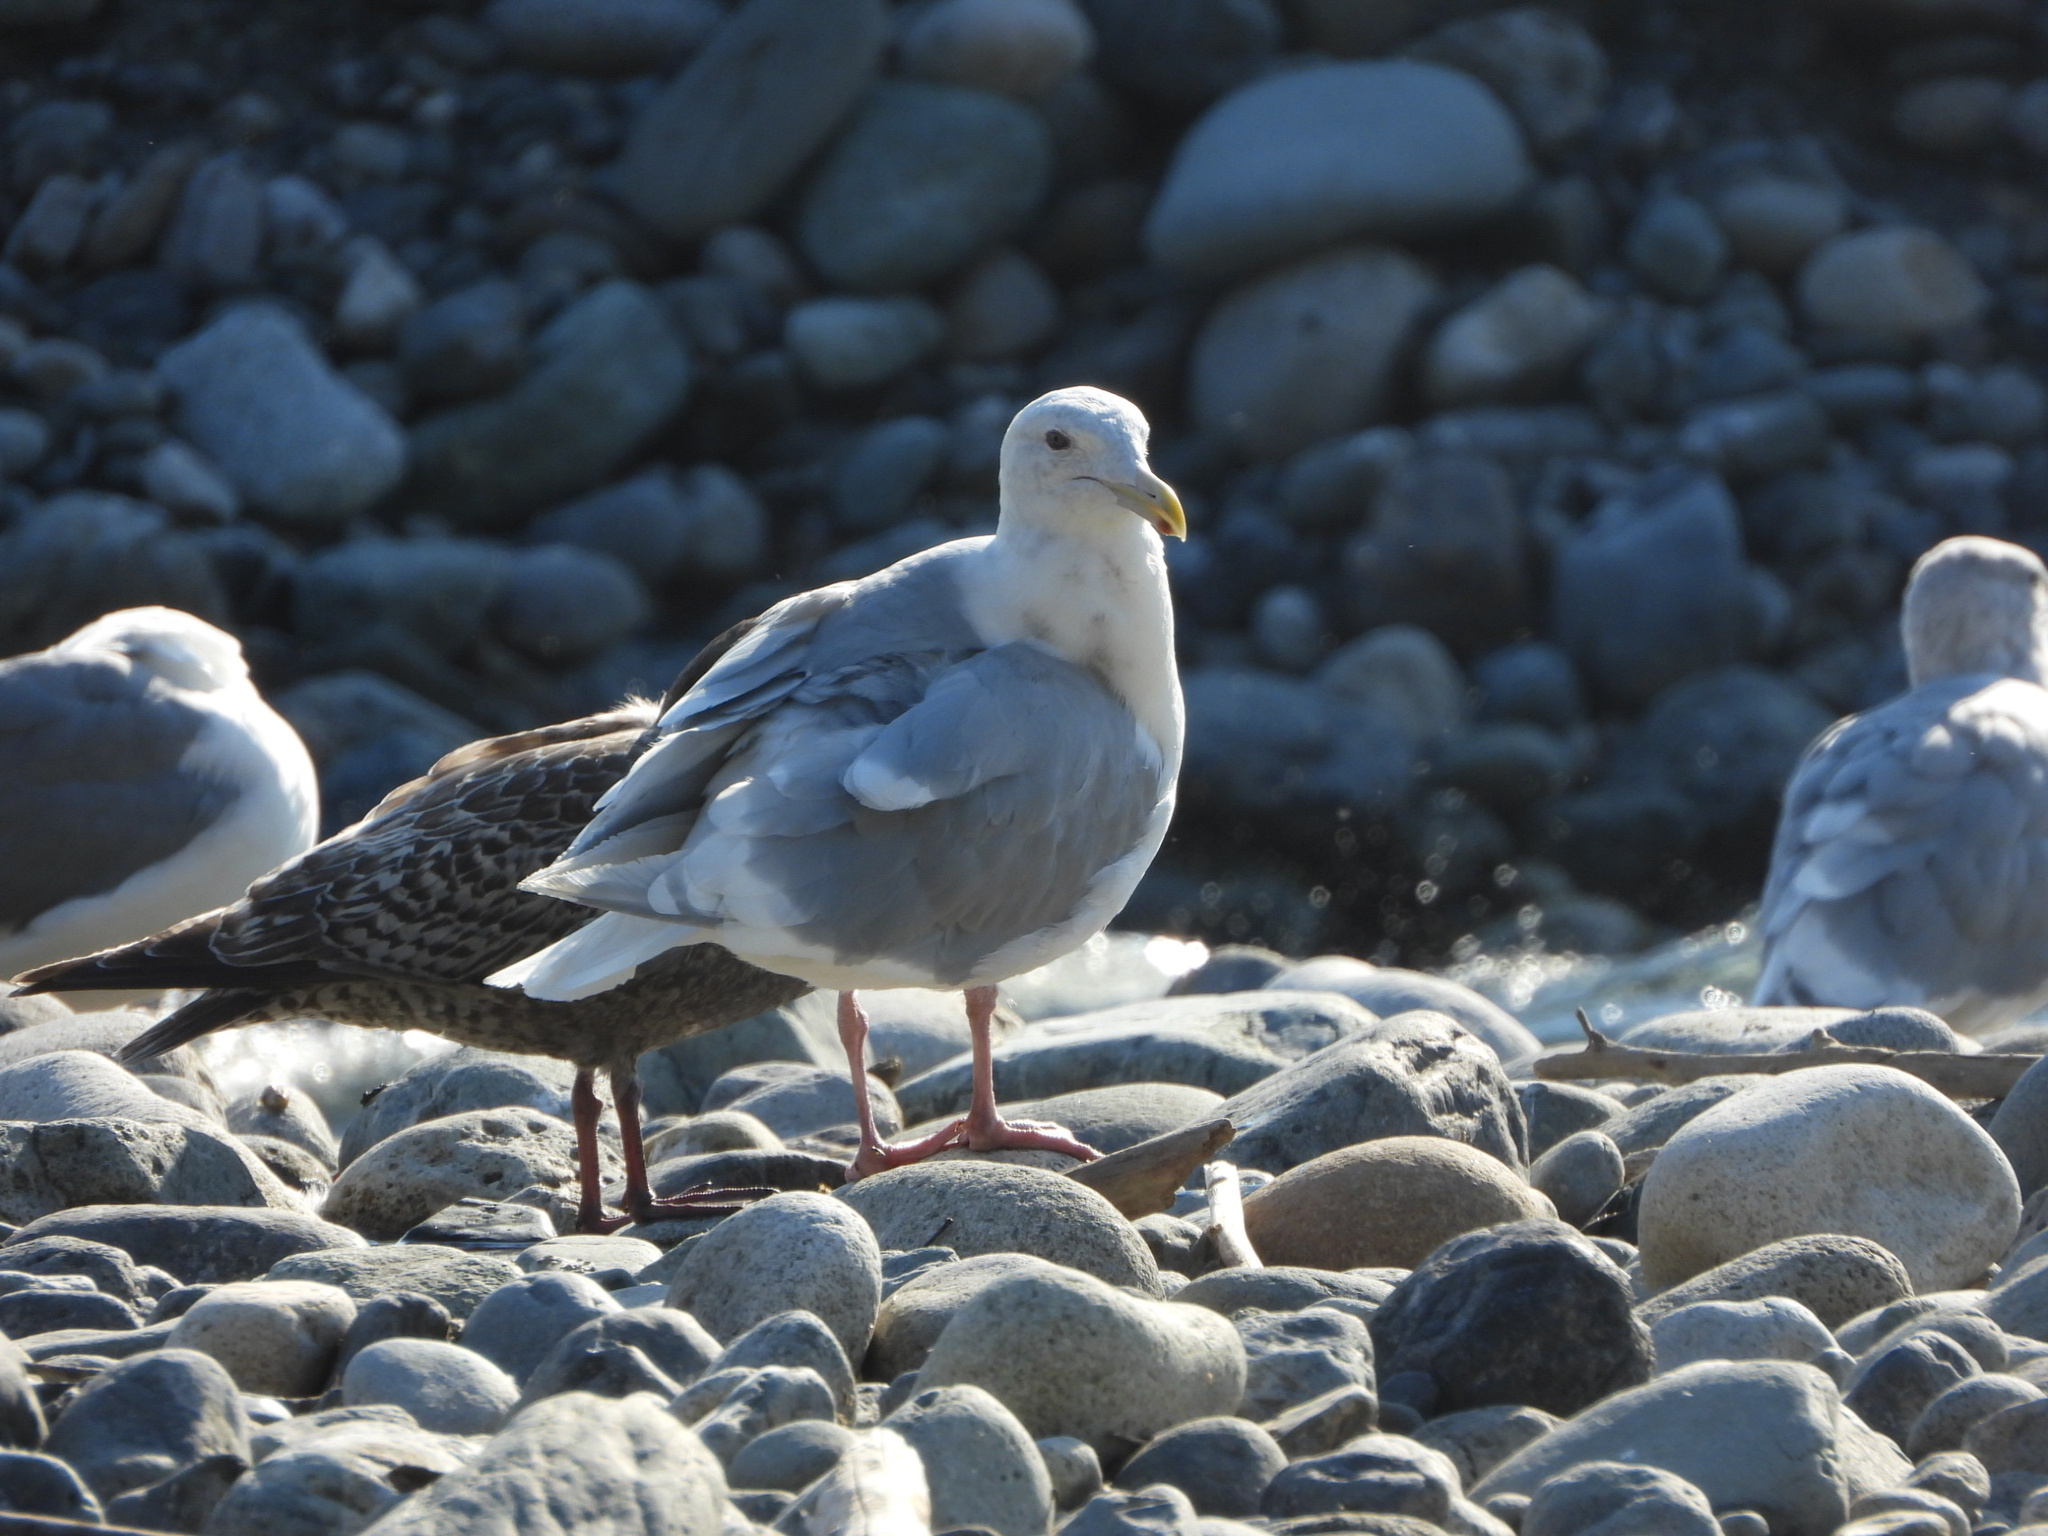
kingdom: Animalia
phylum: Chordata
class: Aves
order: Charadriiformes
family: Laridae
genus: Larus
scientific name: Larus glaucescens
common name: Glaucous-winged gull
